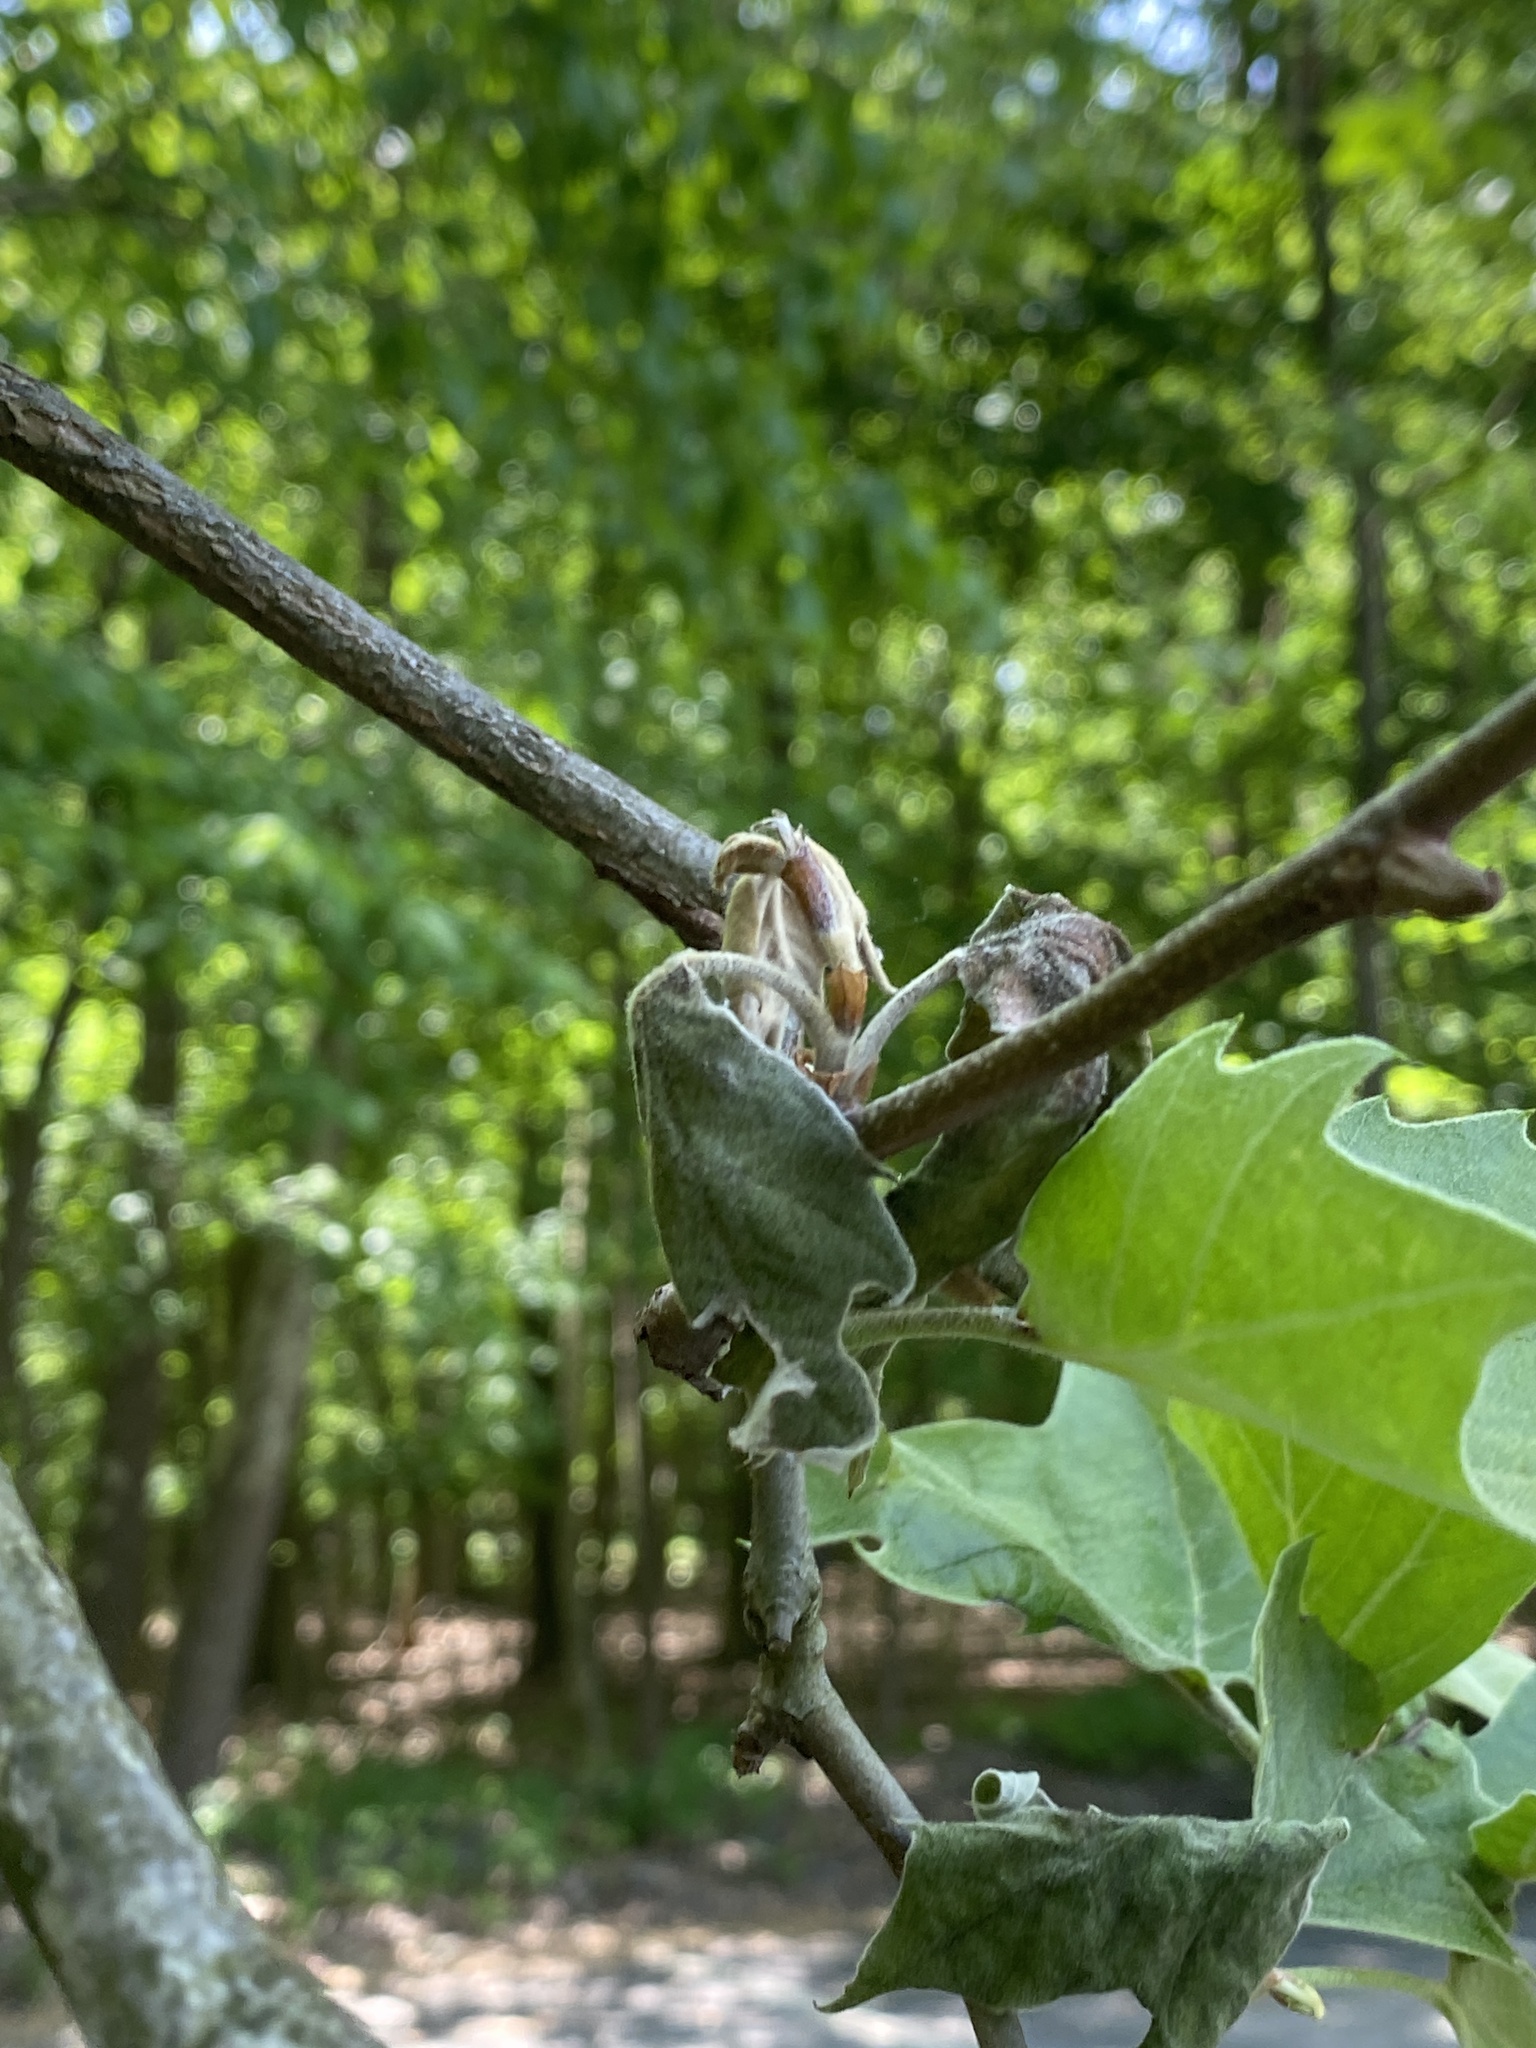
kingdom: Fungi
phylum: Ascomycota
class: Sordariomycetes
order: Diaporthales
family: Gnomoniaceae
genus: Apiognomonia
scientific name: Apiognomonia veneta
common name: Plane anthracnose
